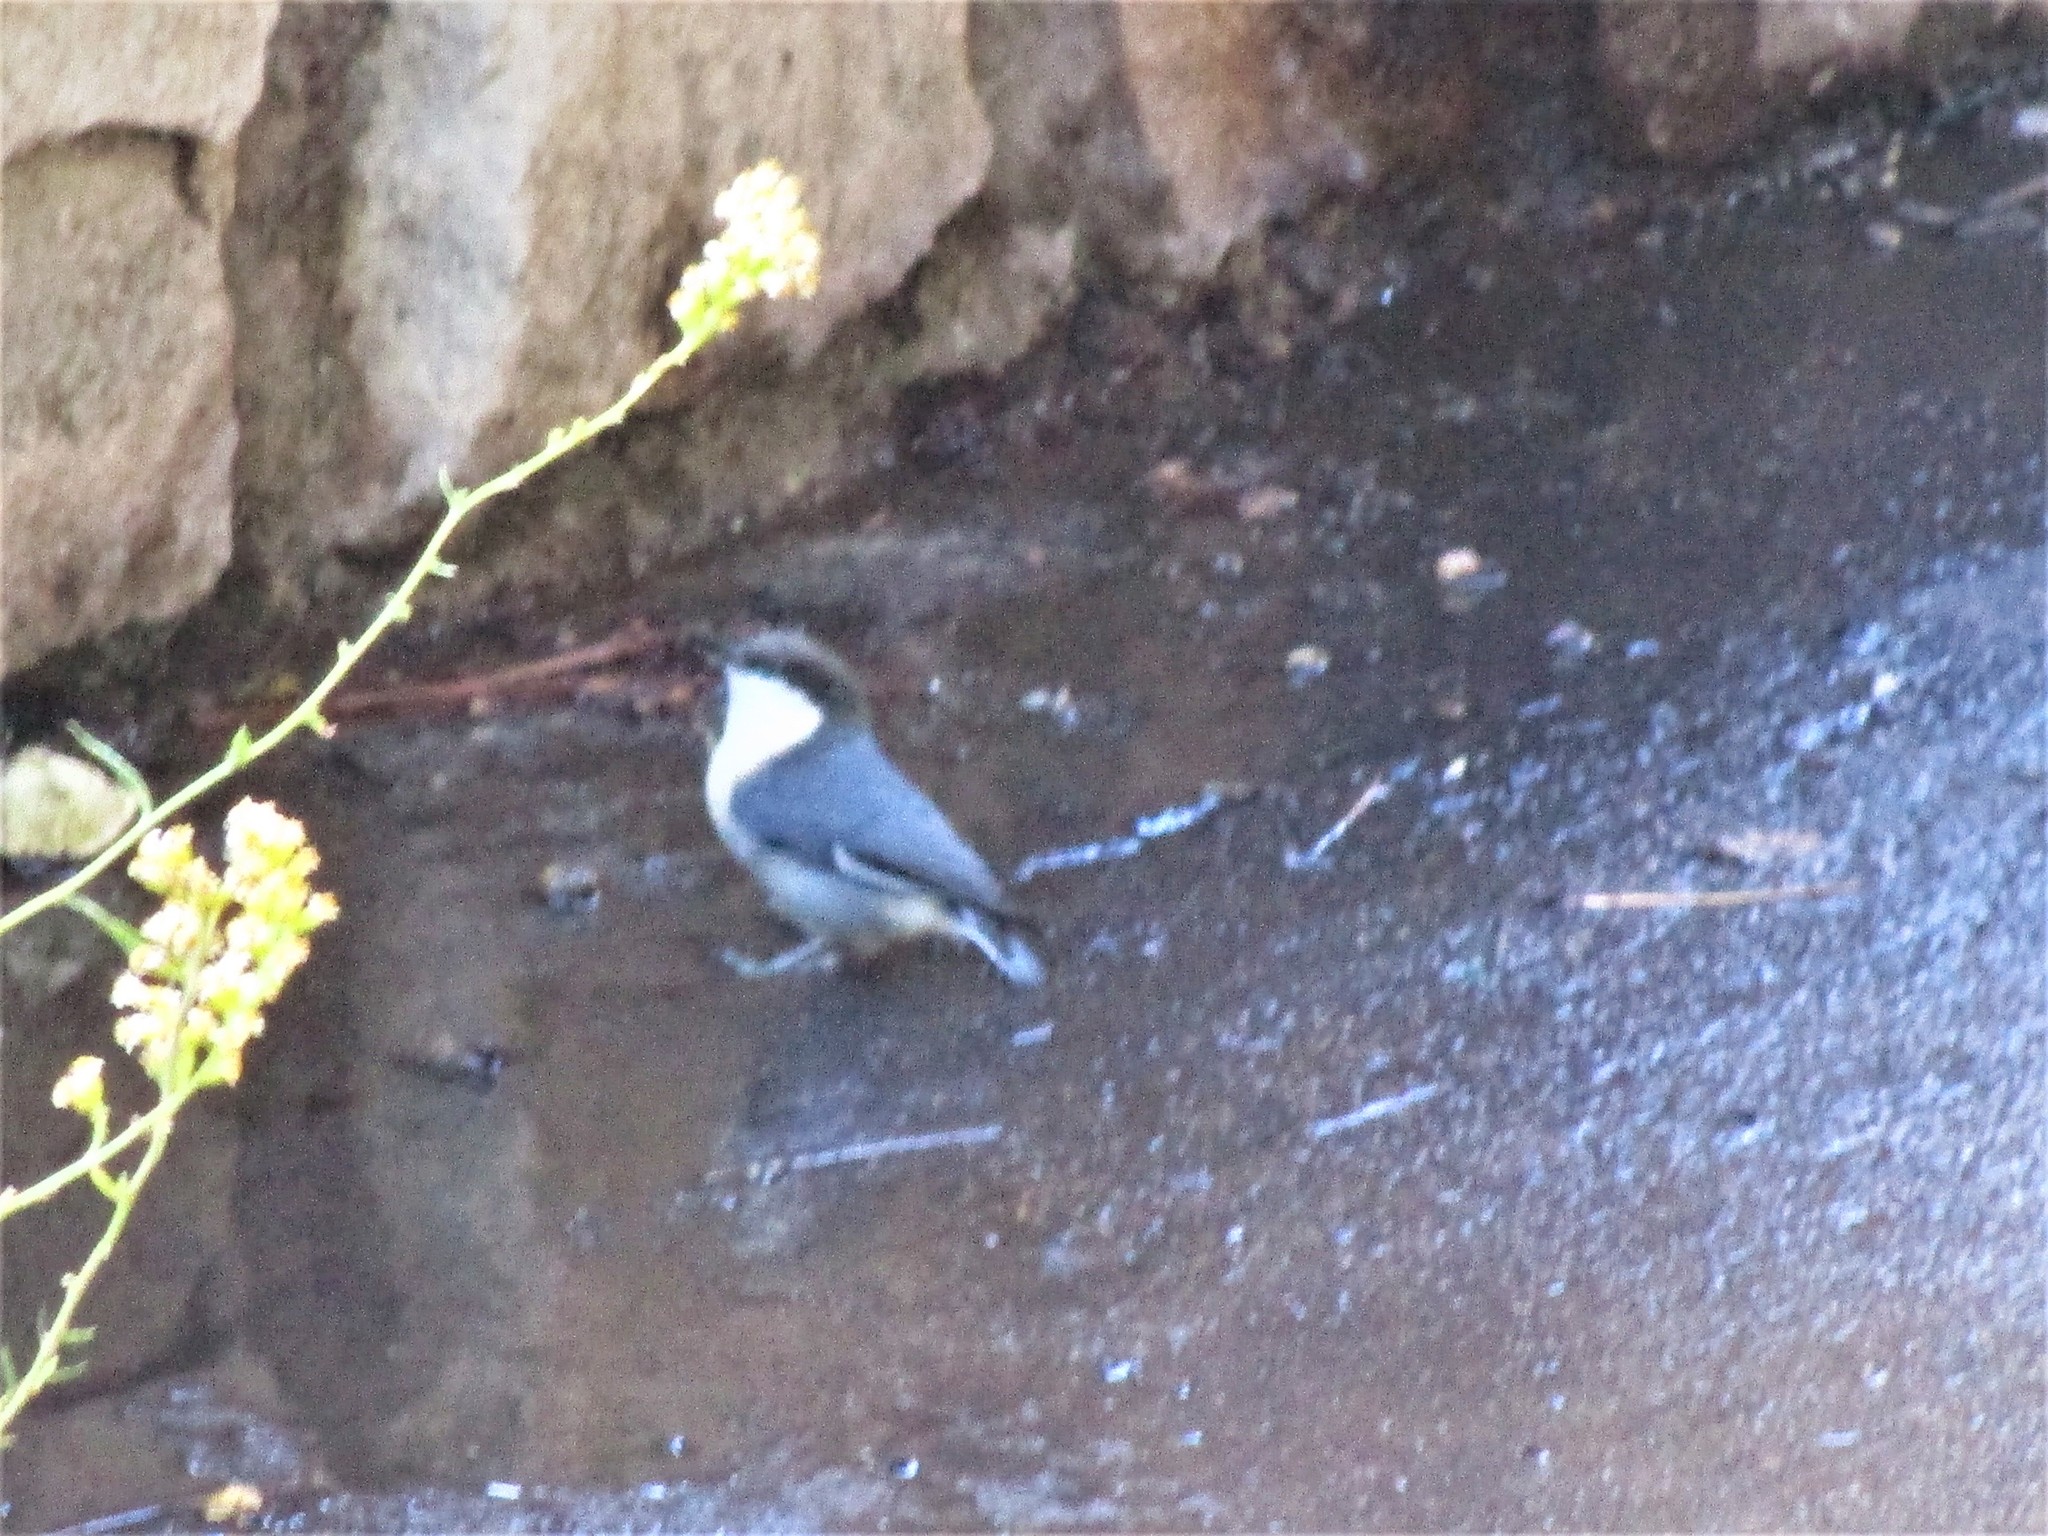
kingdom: Animalia
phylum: Chordata
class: Aves
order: Passeriformes
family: Sittidae
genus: Sitta
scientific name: Sitta pygmaea
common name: Pygmy nuthatch
